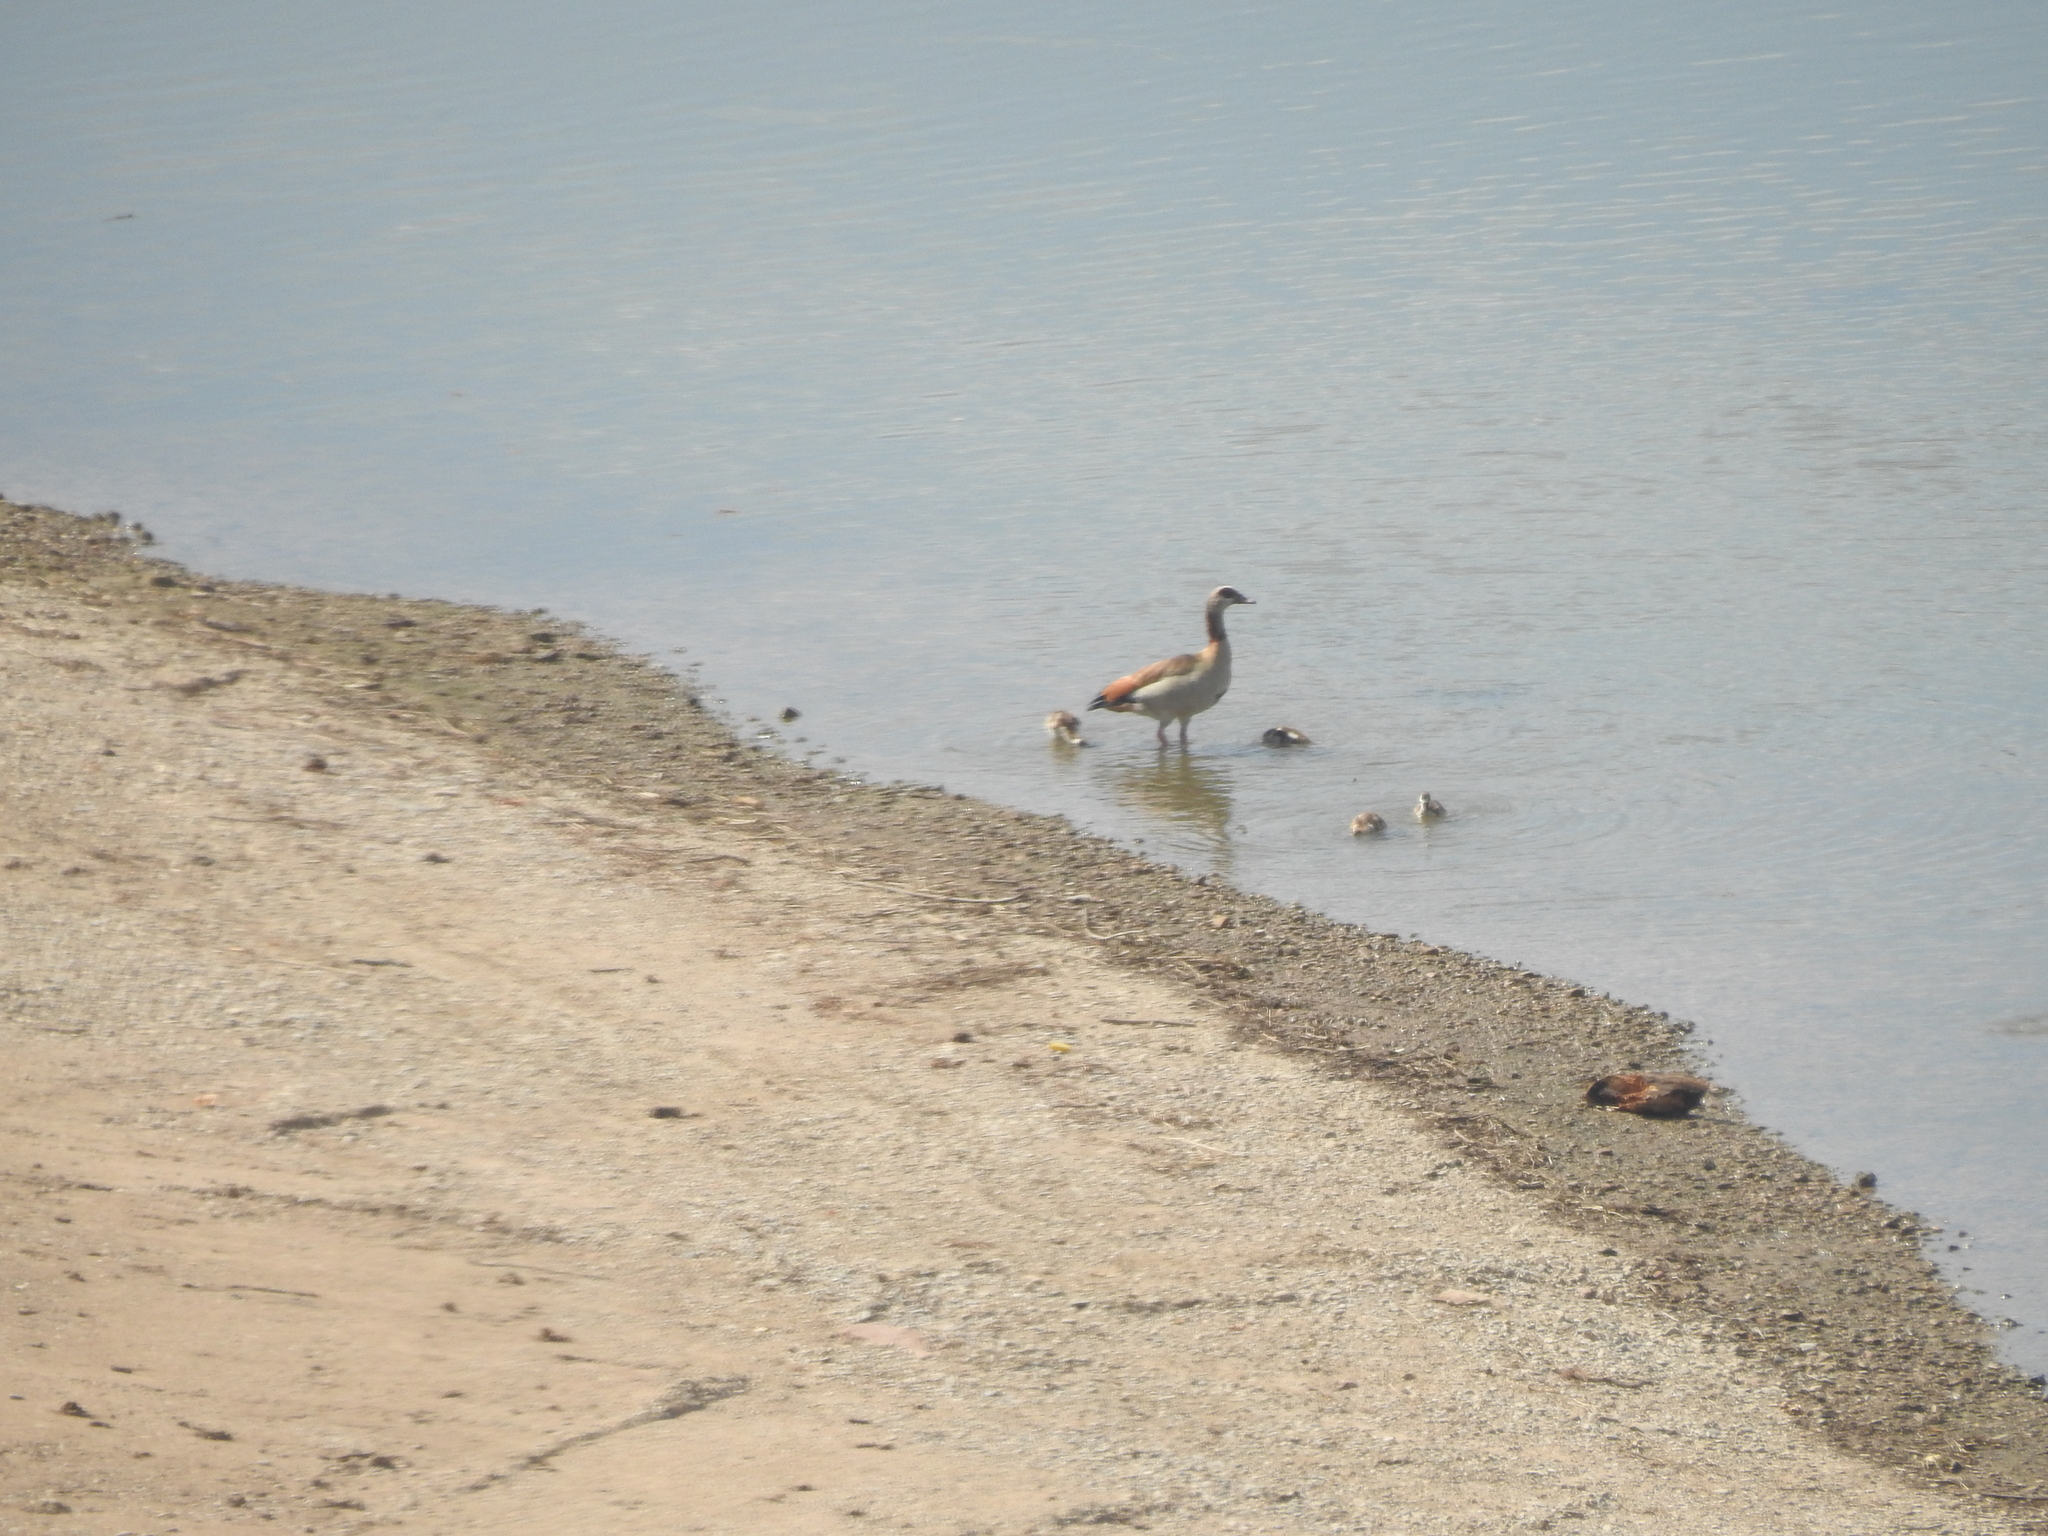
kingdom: Animalia
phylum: Chordata
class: Aves
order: Anseriformes
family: Anatidae
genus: Alopochen
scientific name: Alopochen aegyptiaca
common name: Egyptian goose
